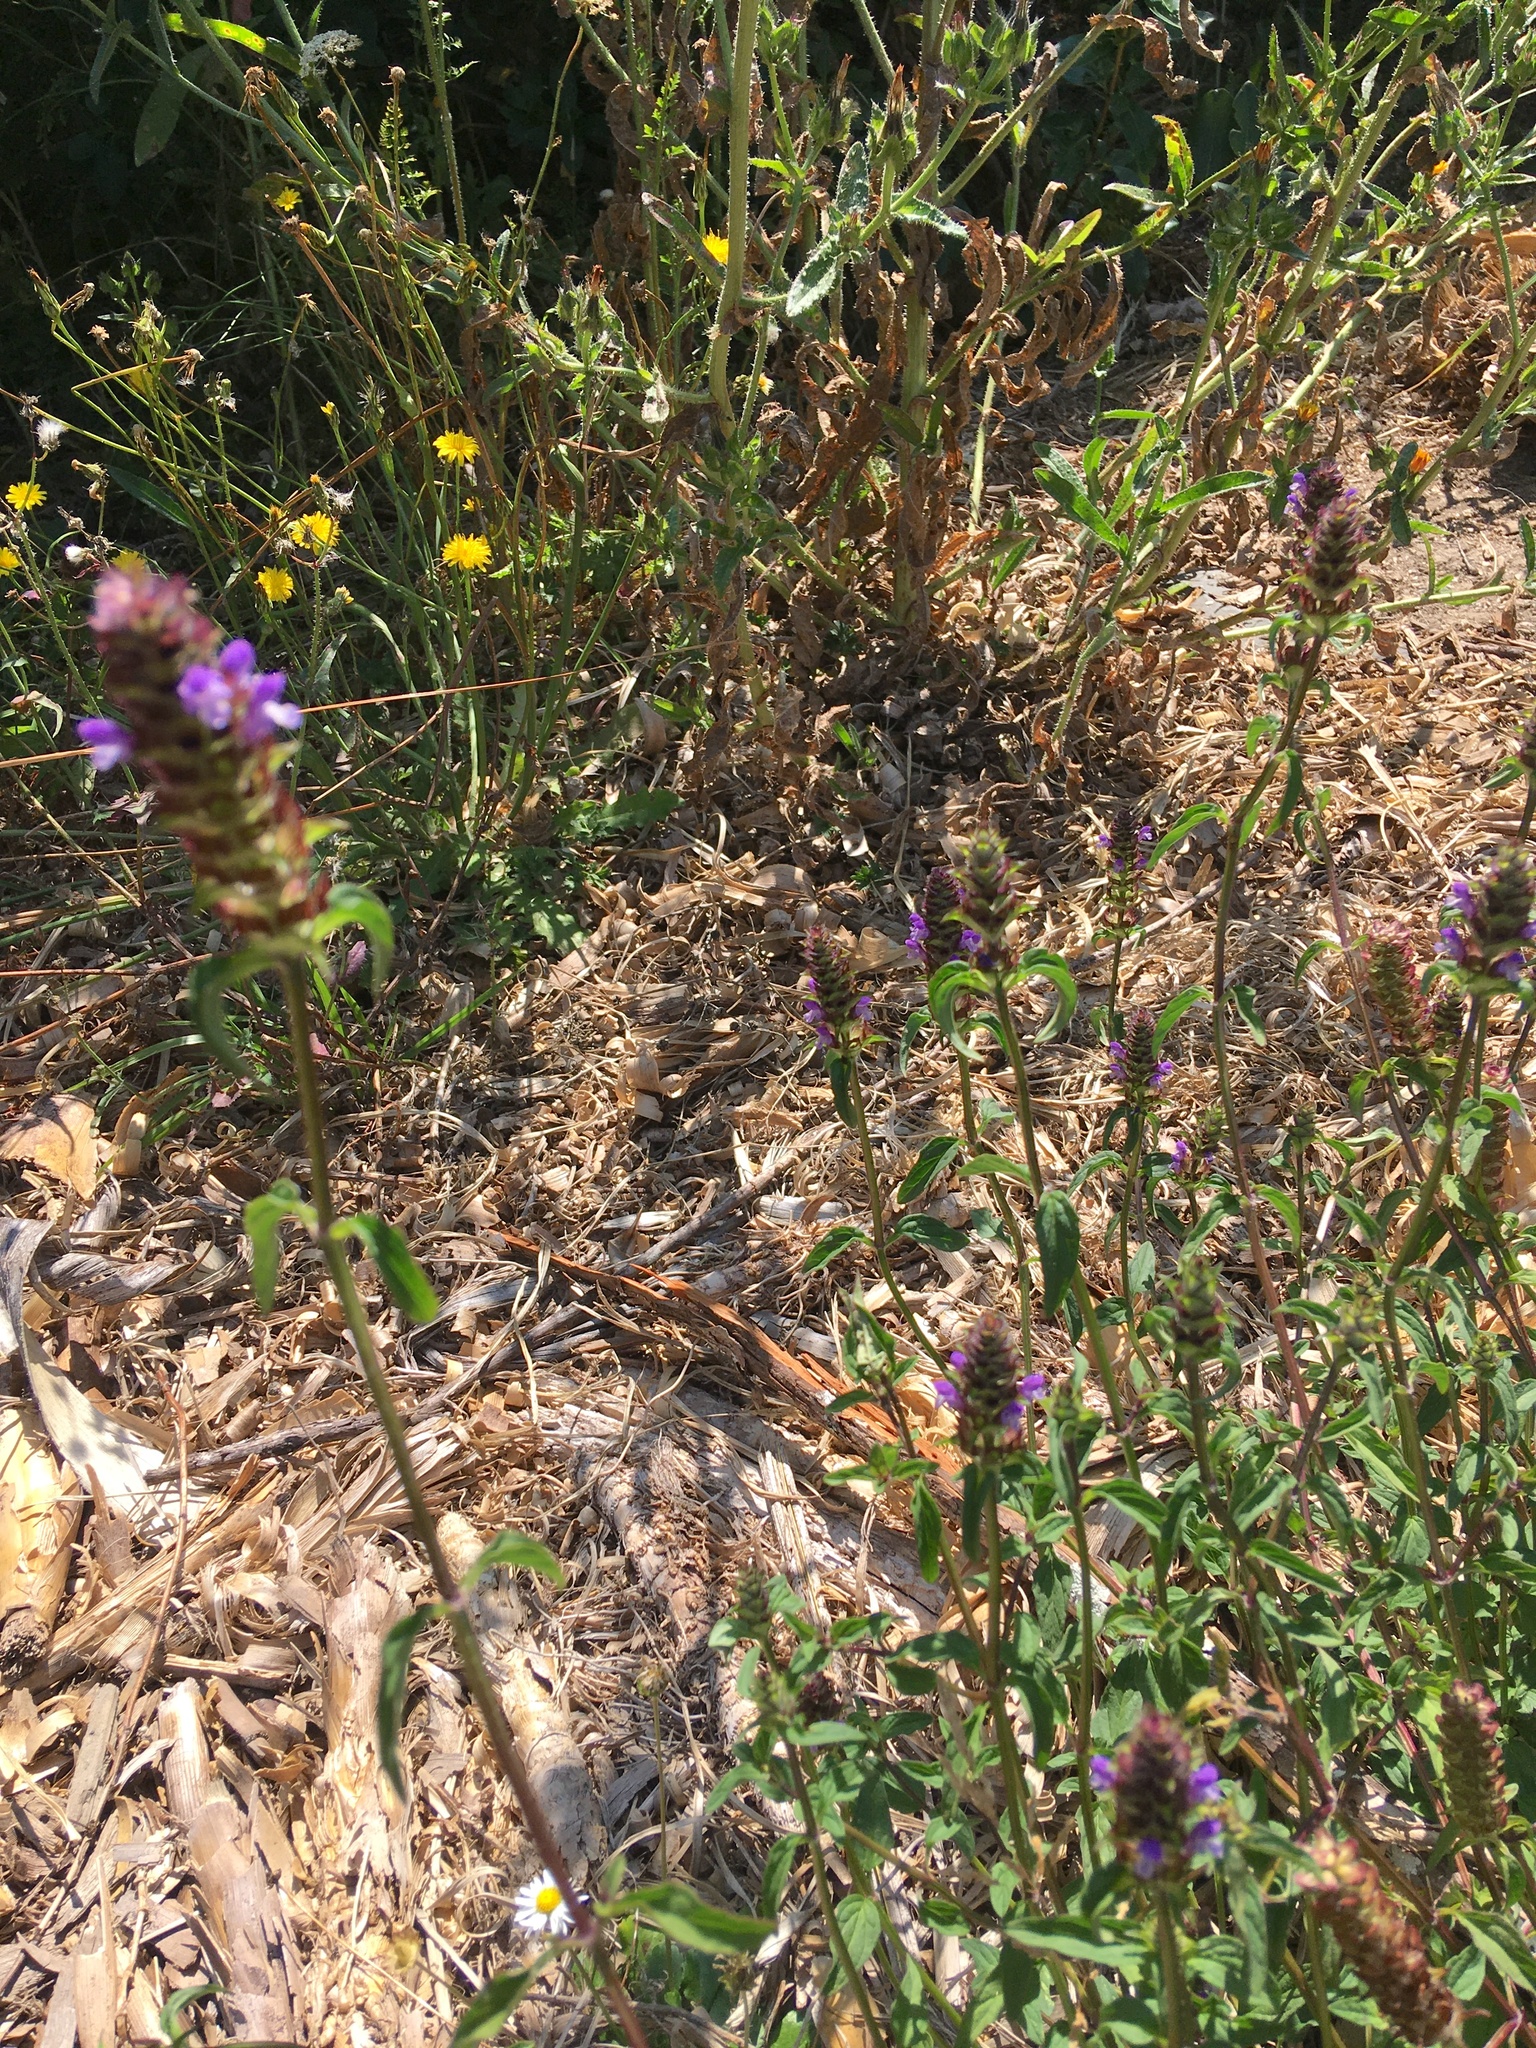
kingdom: Plantae
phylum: Tracheophyta
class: Magnoliopsida
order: Lamiales
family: Lamiaceae
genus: Prunella
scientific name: Prunella vulgaris
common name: Heal-all
